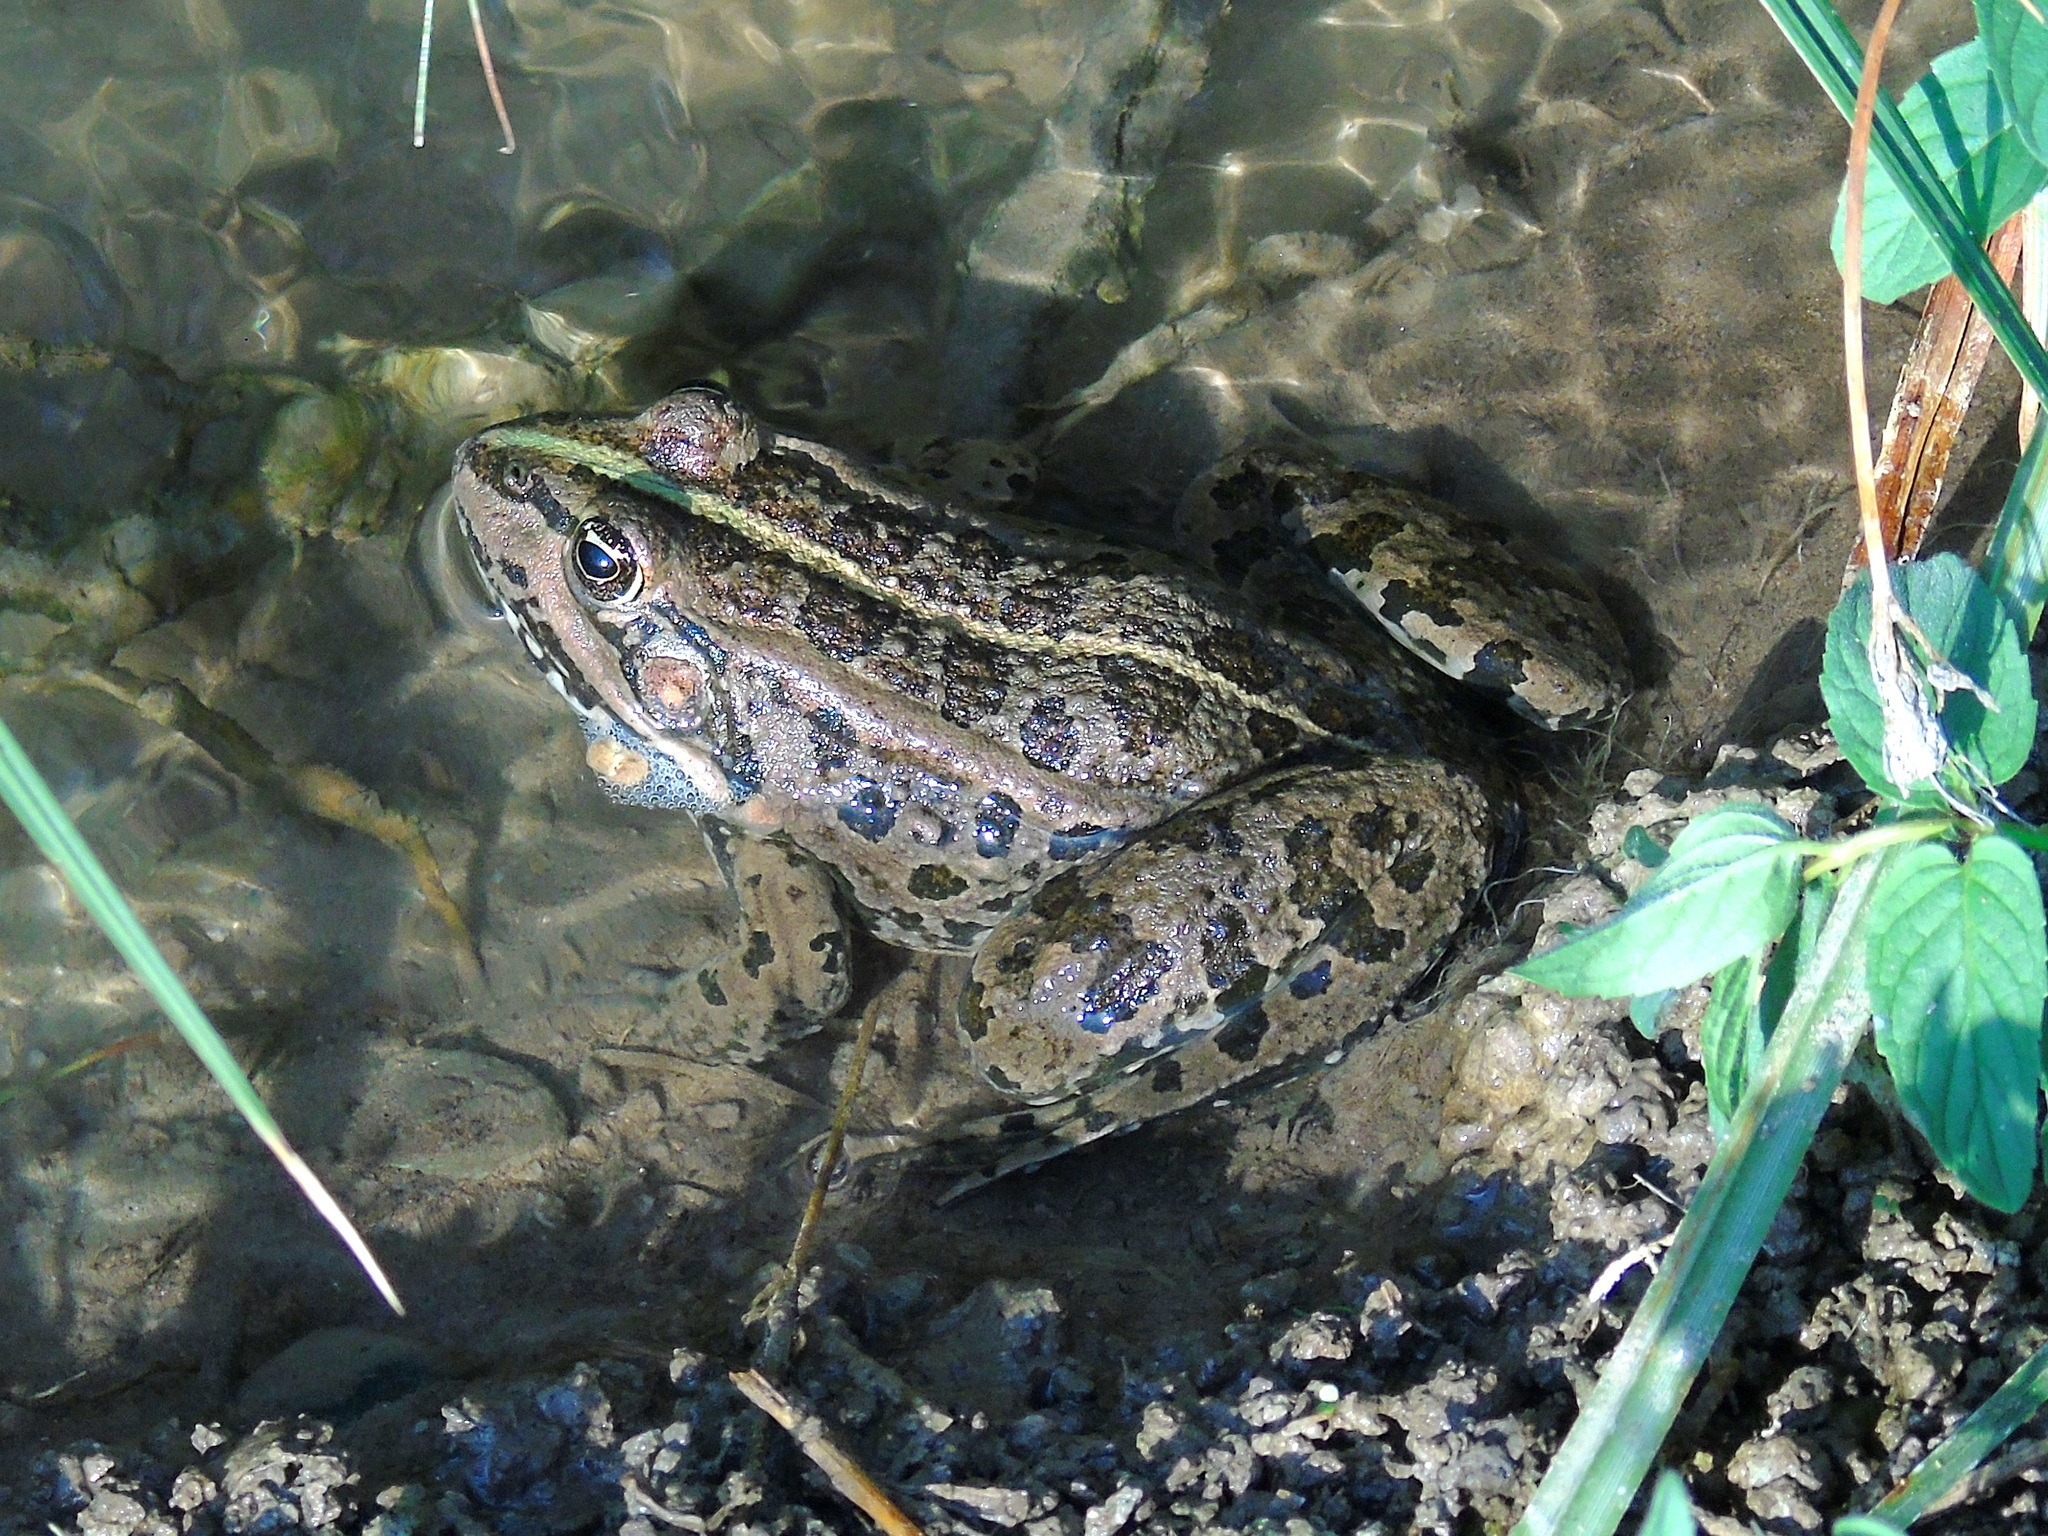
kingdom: Animalia
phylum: Chordata
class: Amphibia
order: Anura
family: Ranidae
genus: Pelophylax
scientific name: Pelophylax ridibundus
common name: Marsh frog
